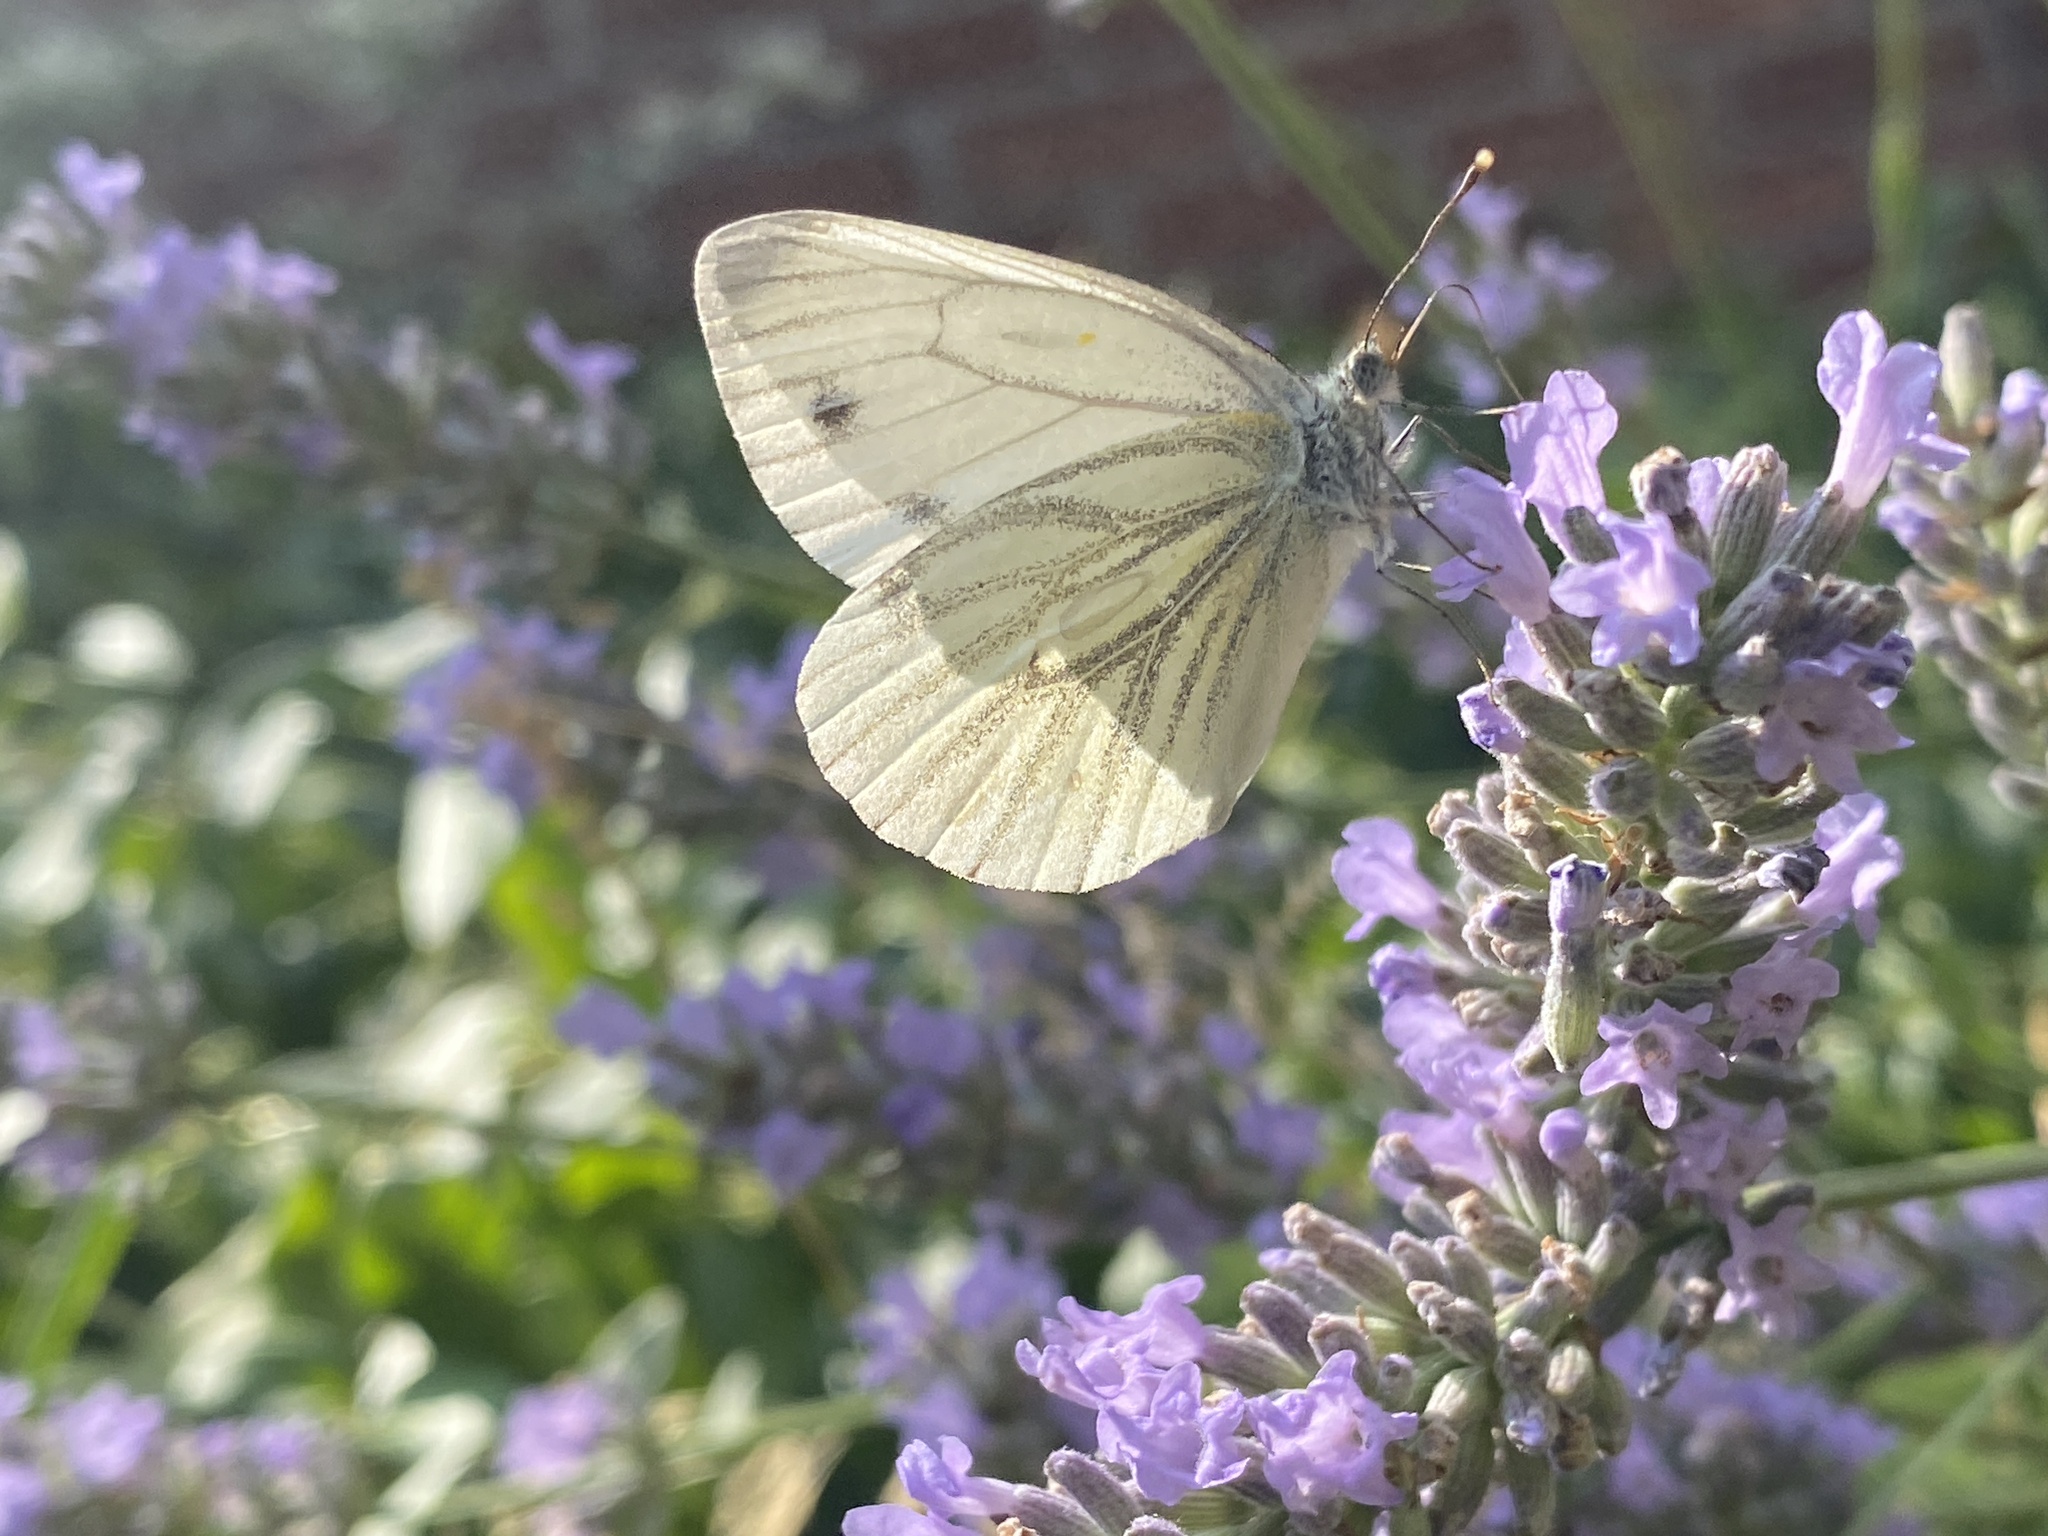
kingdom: Animalia
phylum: Arthropoda
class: Insecta
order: Lepidoptera
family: Pieridae
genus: Pieris
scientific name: Pieris napi
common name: Green-veined white
